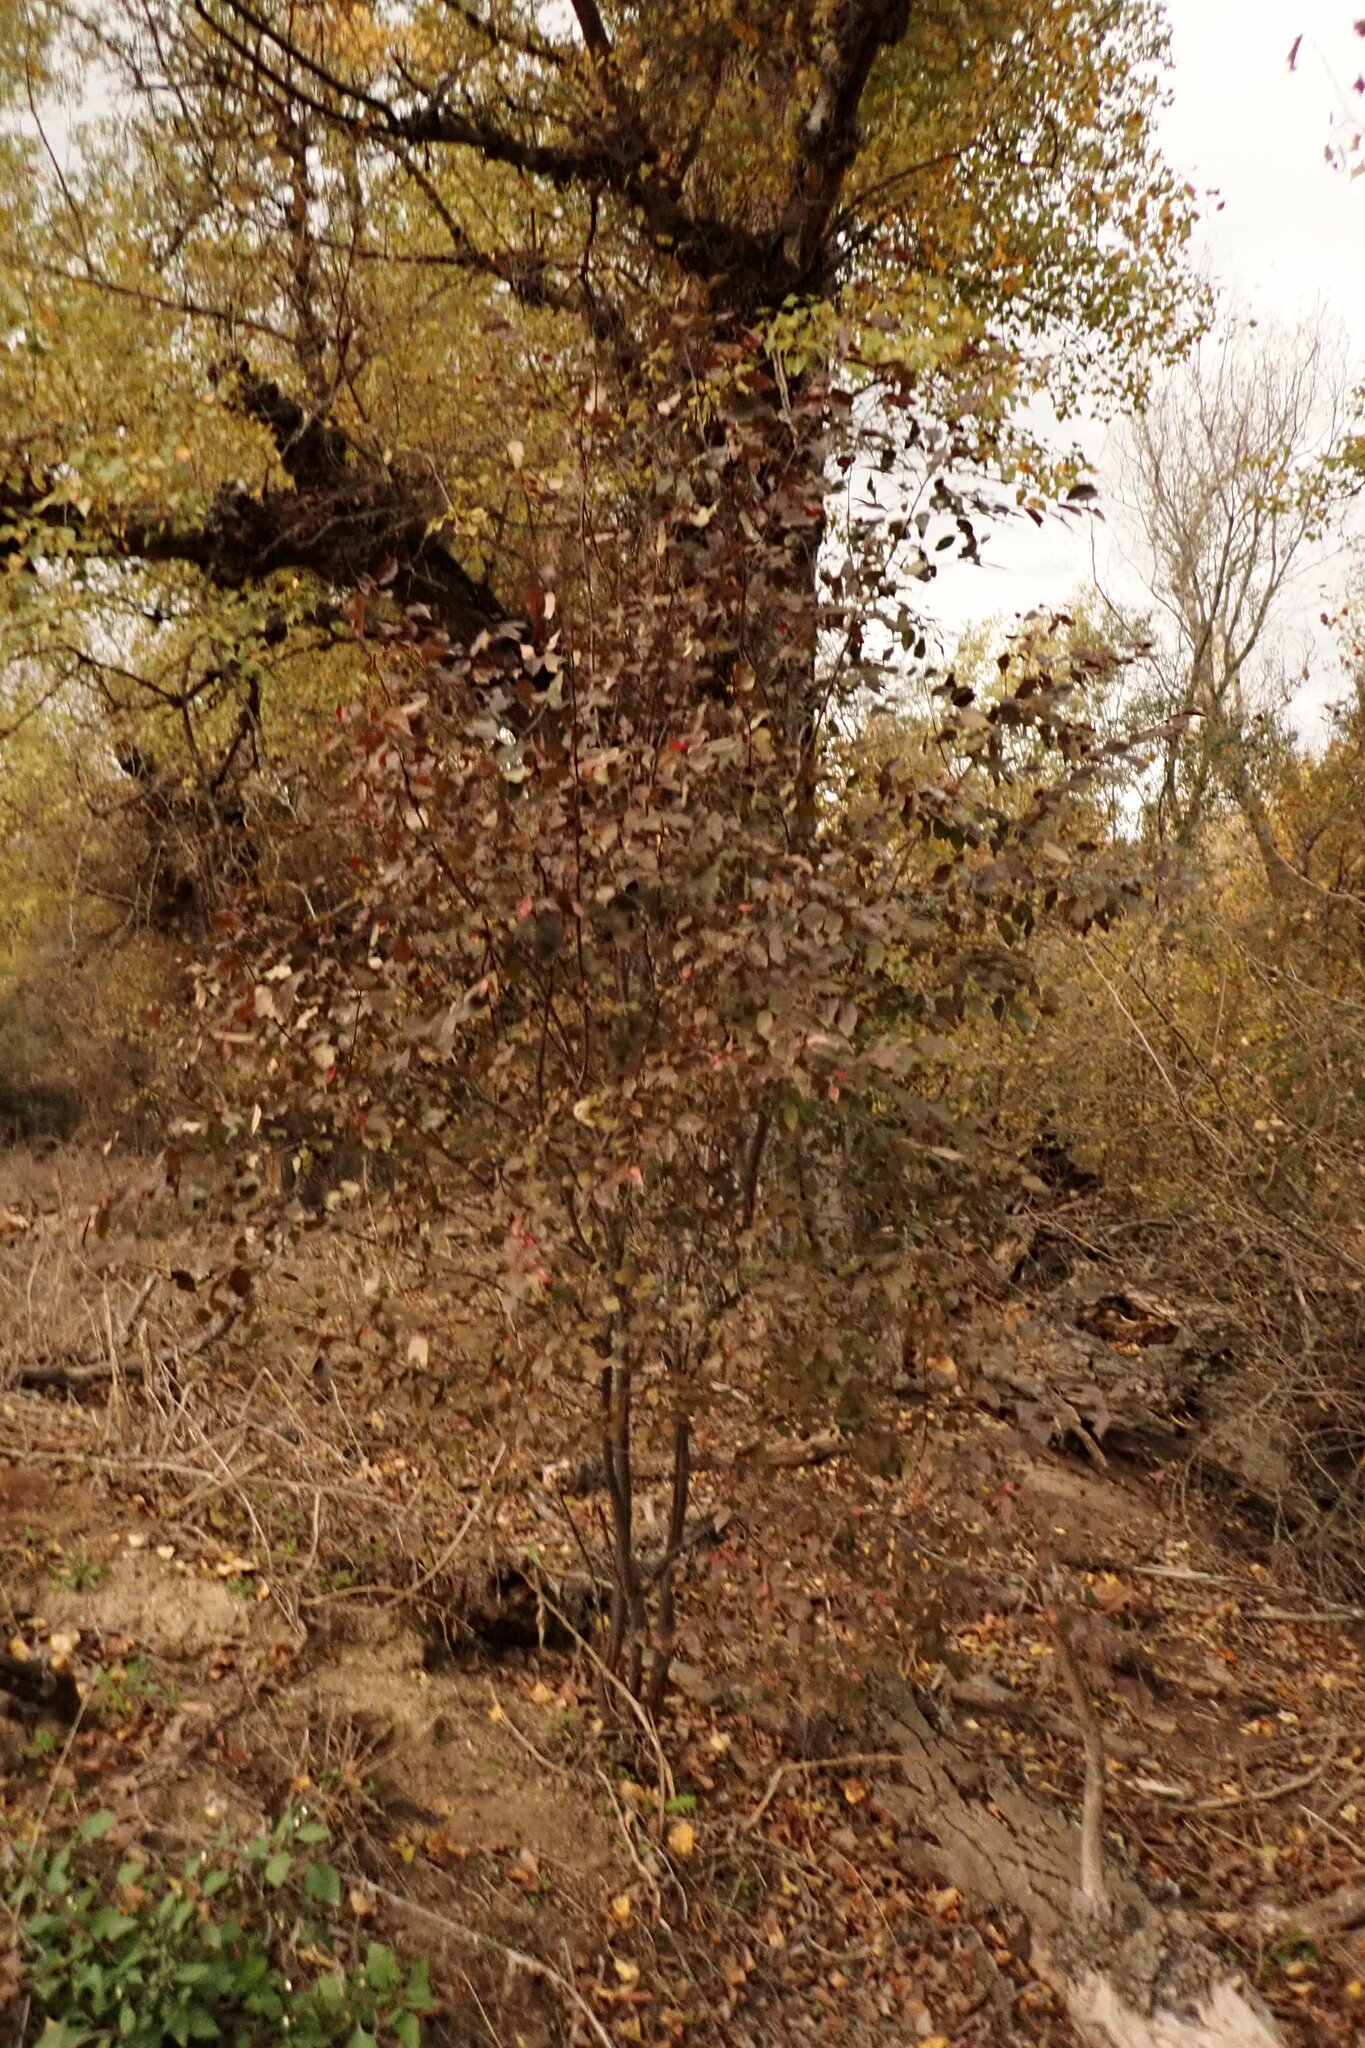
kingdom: Plantae
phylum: Tracheophyta
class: Magnoliopsida
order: Fagales
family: Fagaceae
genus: Quercus
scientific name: Quercus faginea
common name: Gall oak tree
